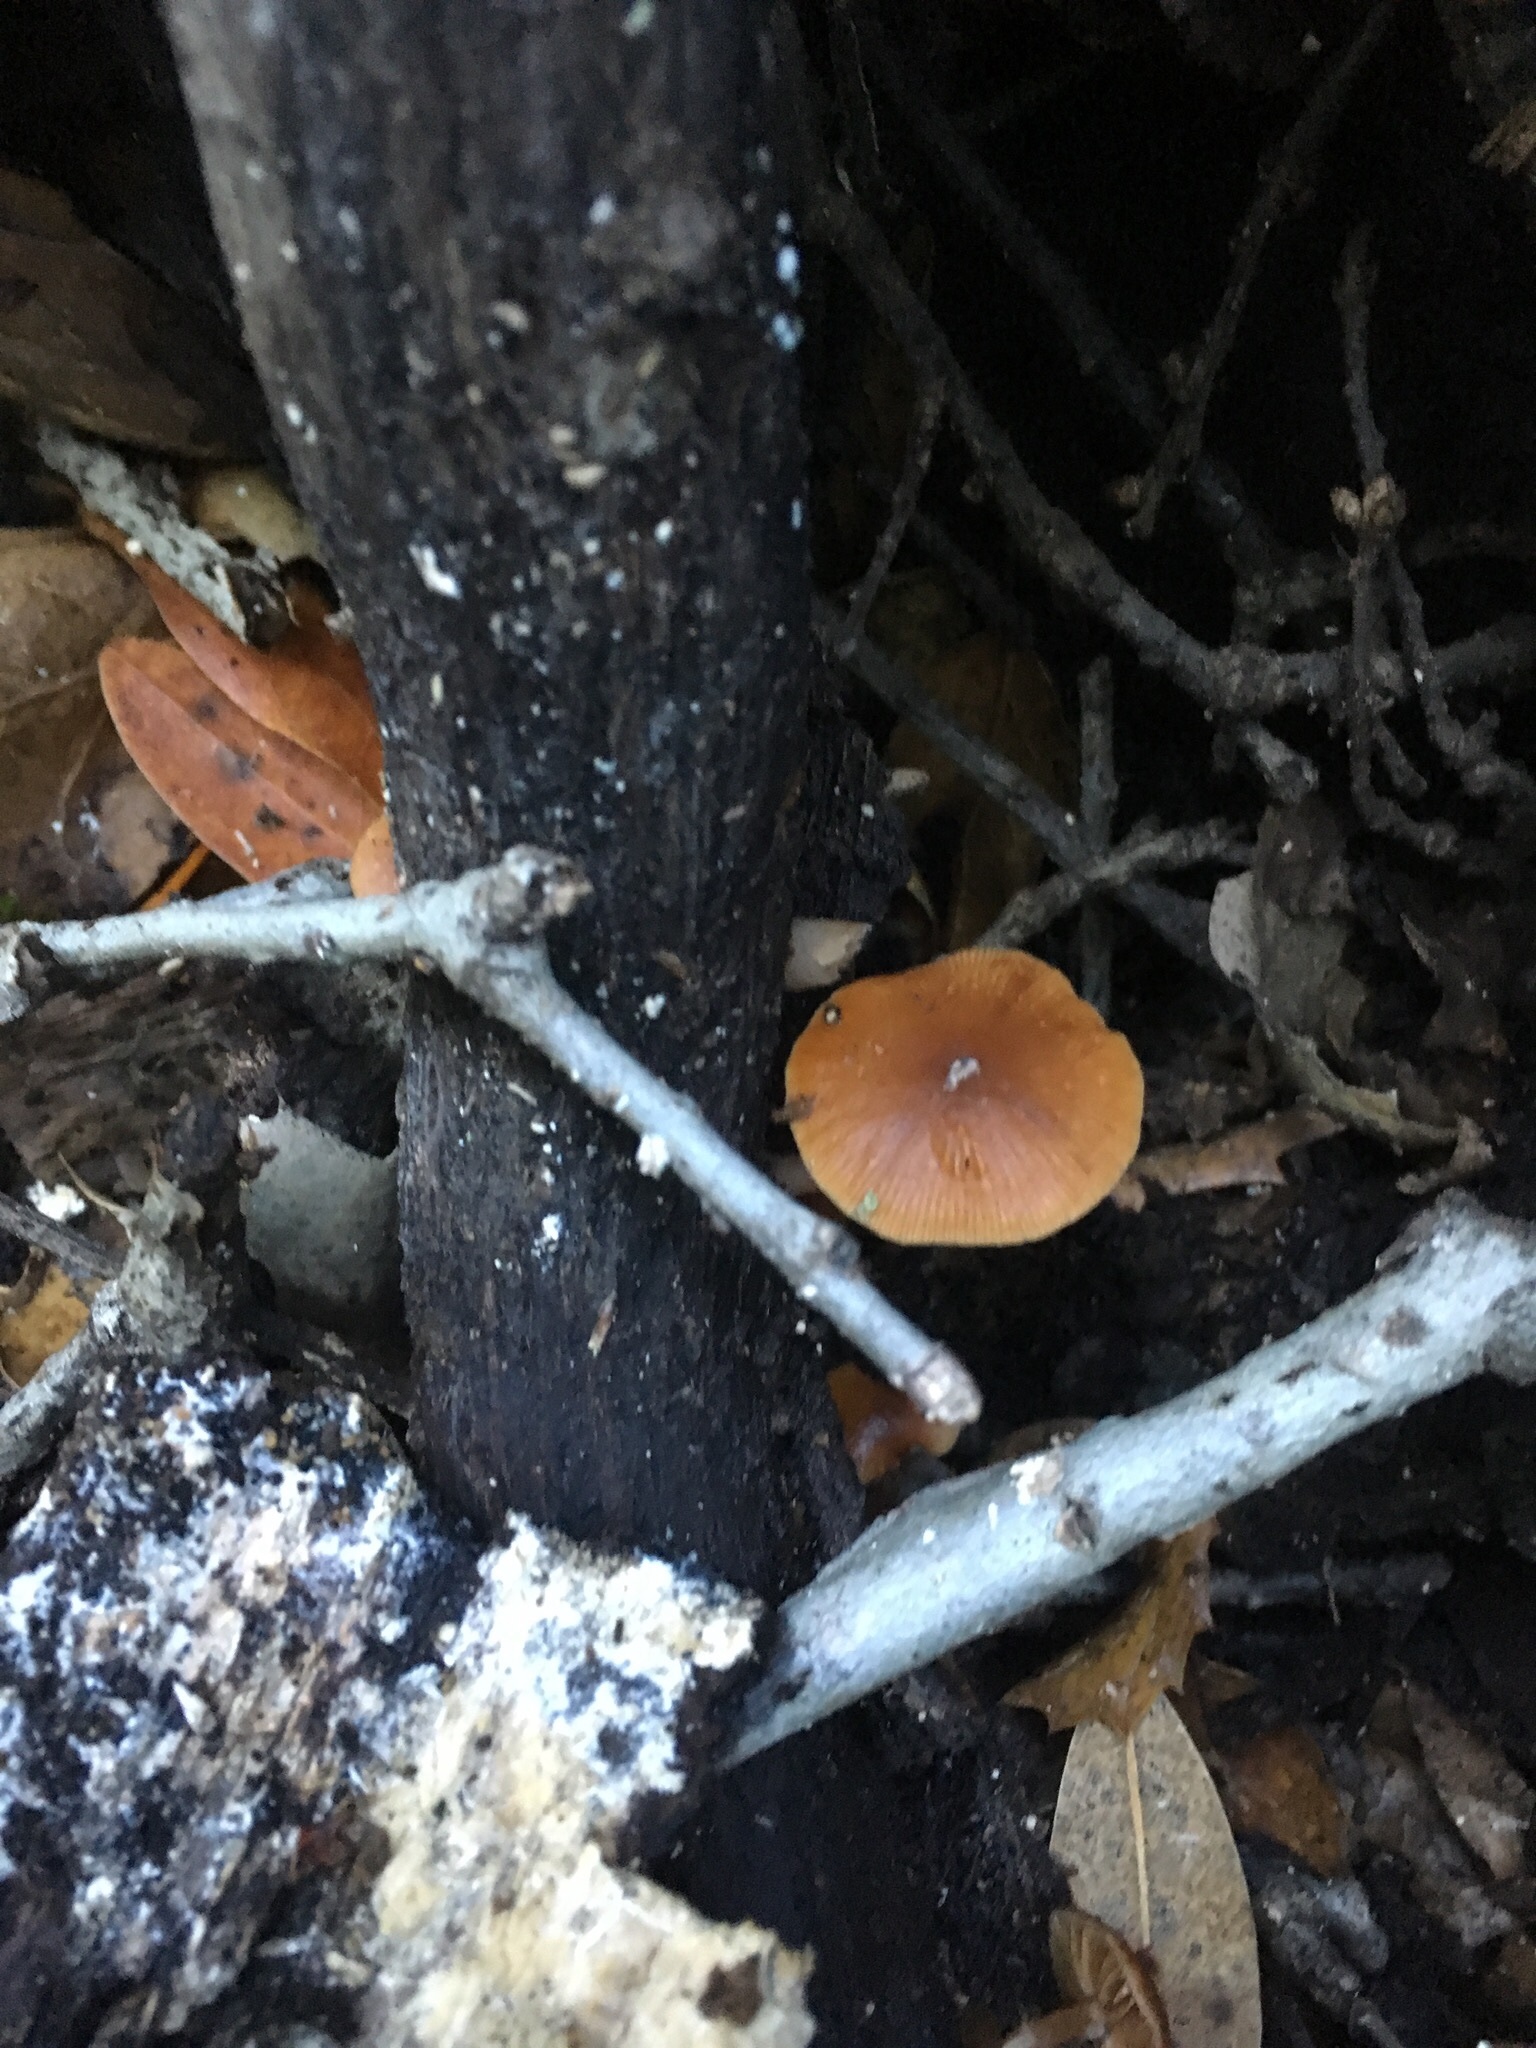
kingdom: Fungi
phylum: Basidiomycota
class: Agaricomycetes
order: Agaricales
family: Tubariaceae
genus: Tubaria
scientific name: Tubaria furfuracea
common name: Scurfy twiglet
